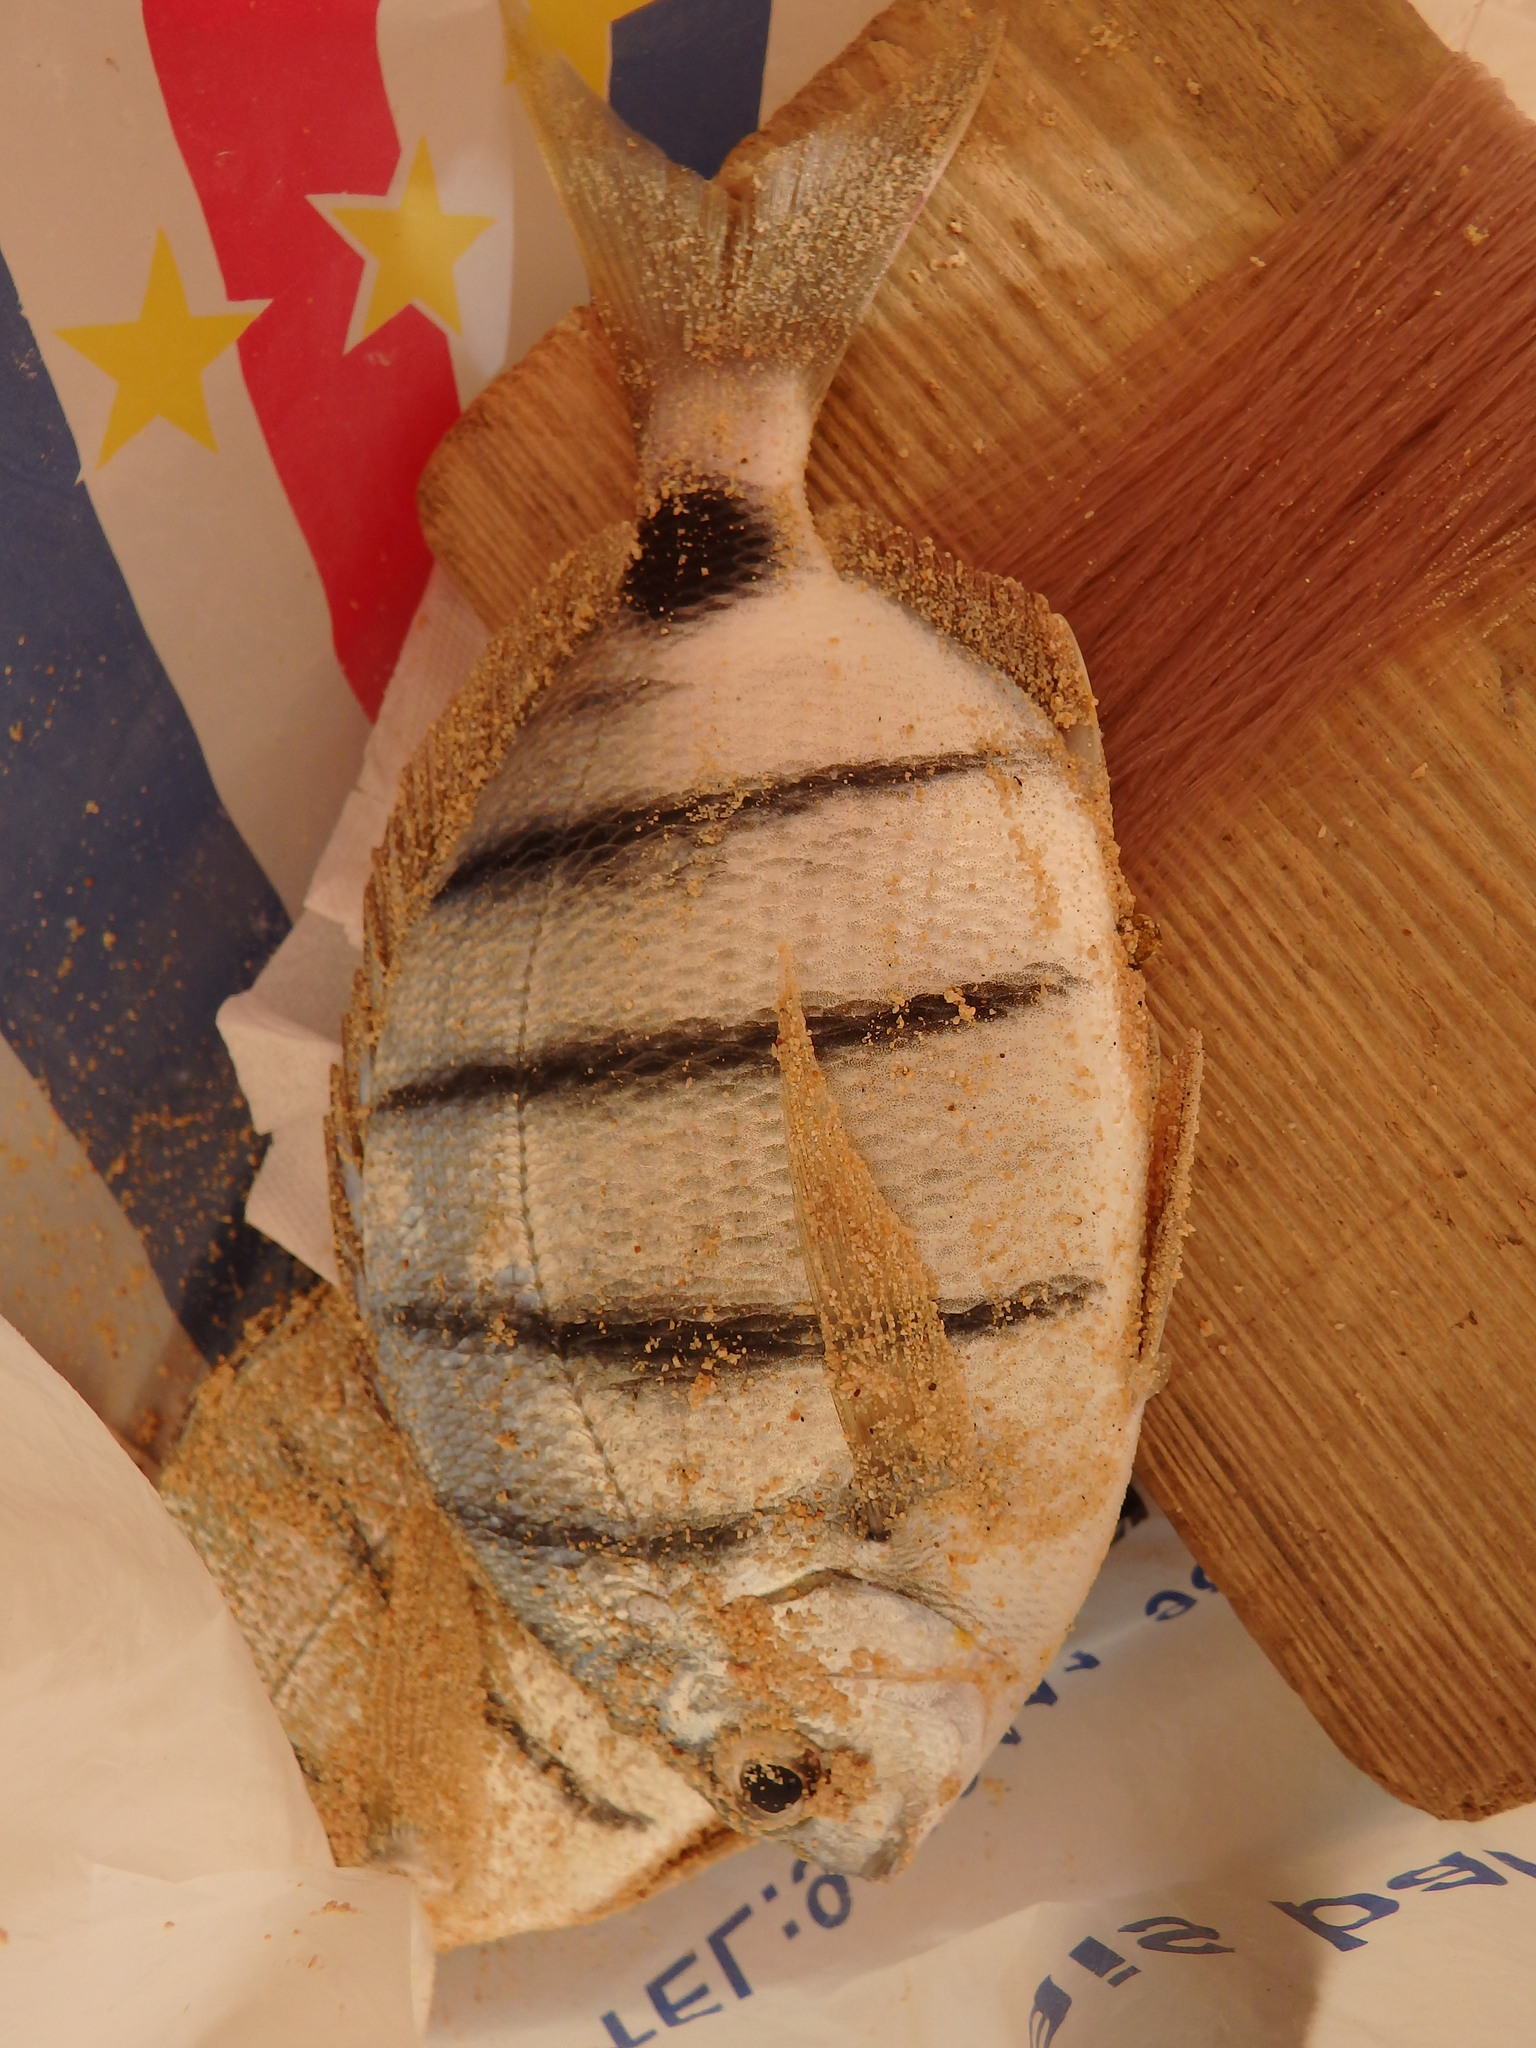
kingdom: Animalia
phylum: Chordata
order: Perciformes
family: Sparidae
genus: Diplodus
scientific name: Diplodus lineatus
